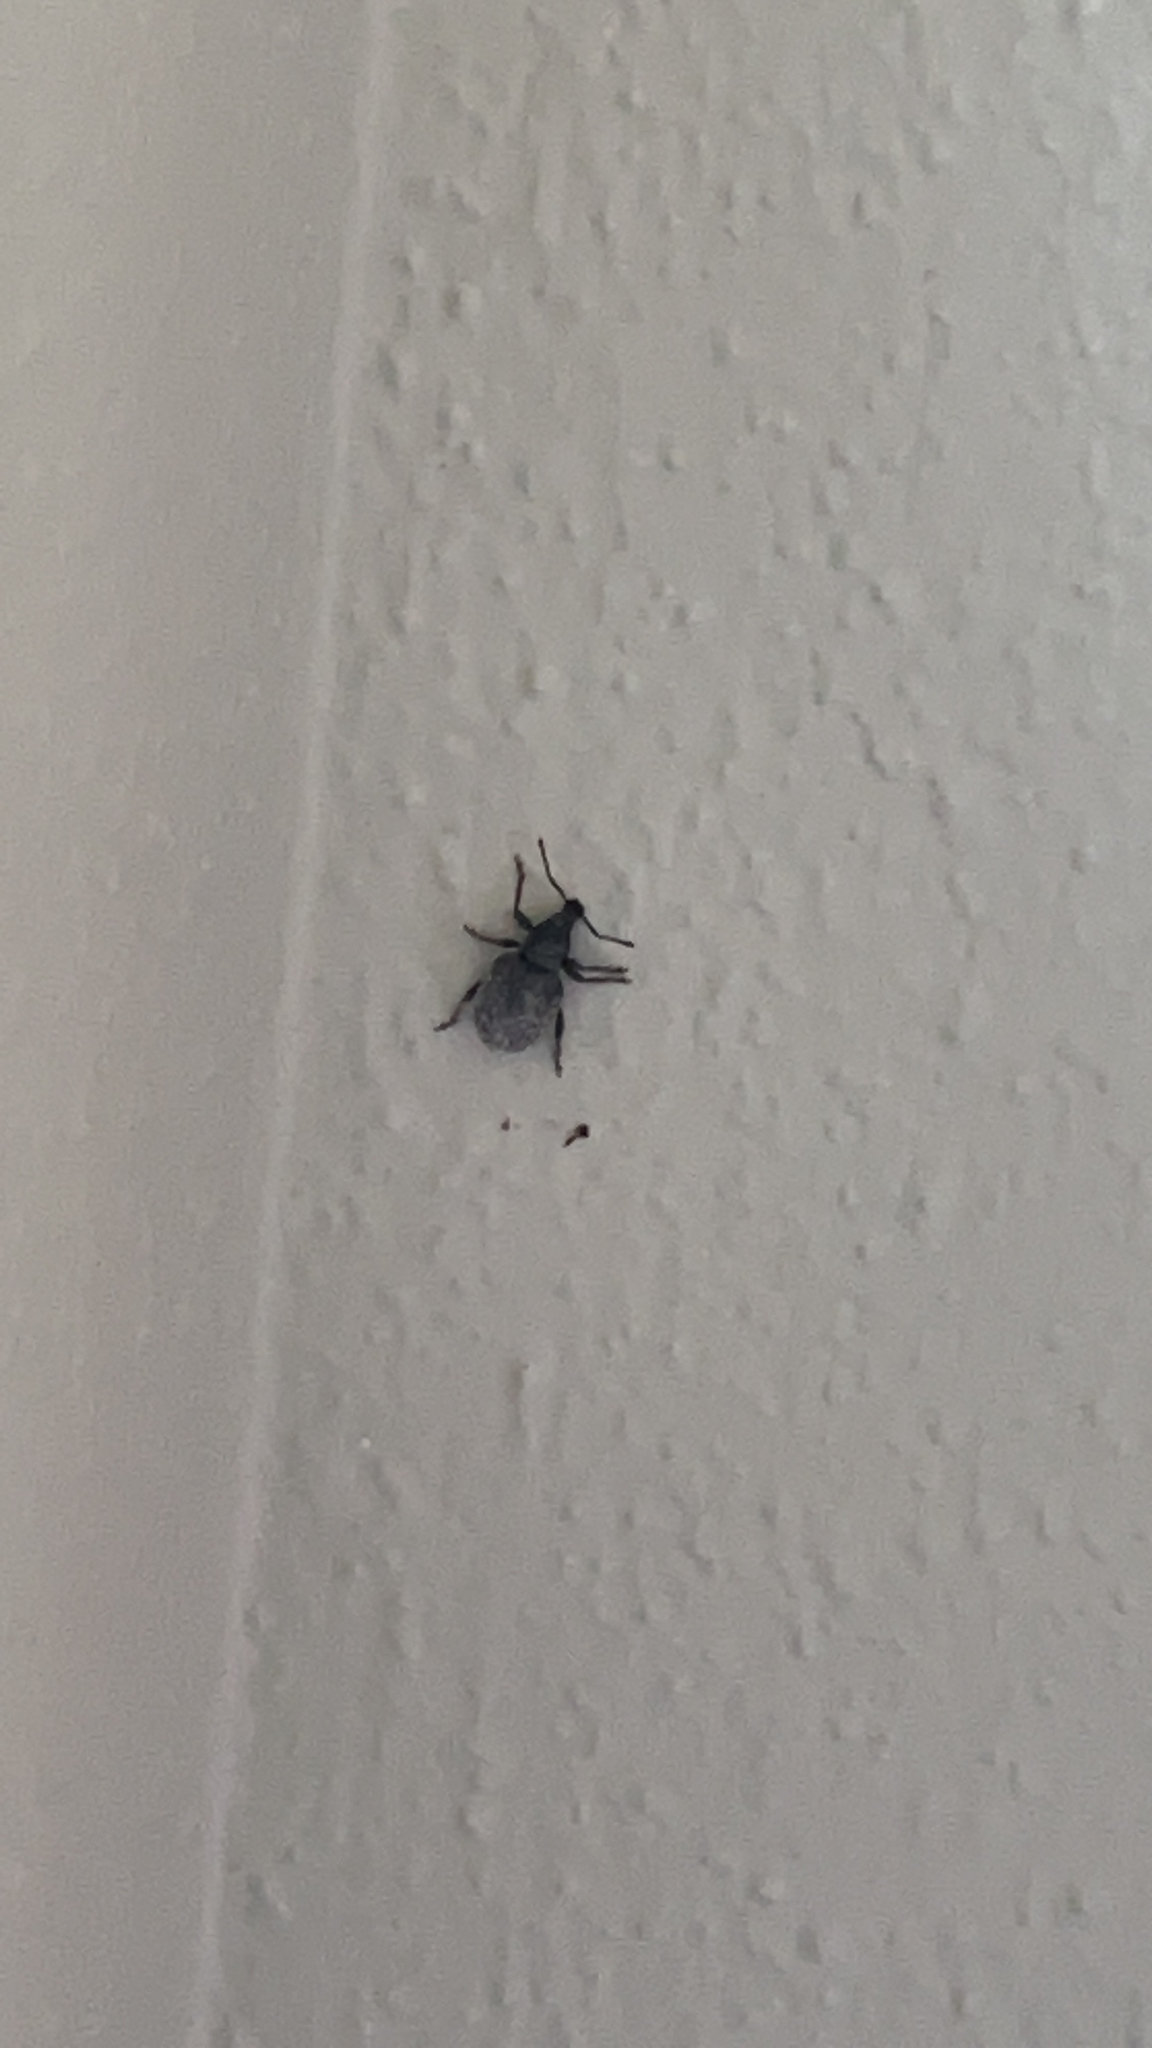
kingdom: Animalia
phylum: Arthropoda
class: Insecta
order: Coleoptera
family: Curculionidae
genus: Otiorhynchus
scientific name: Otiorhynchus rugosostriatus
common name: Weevil
